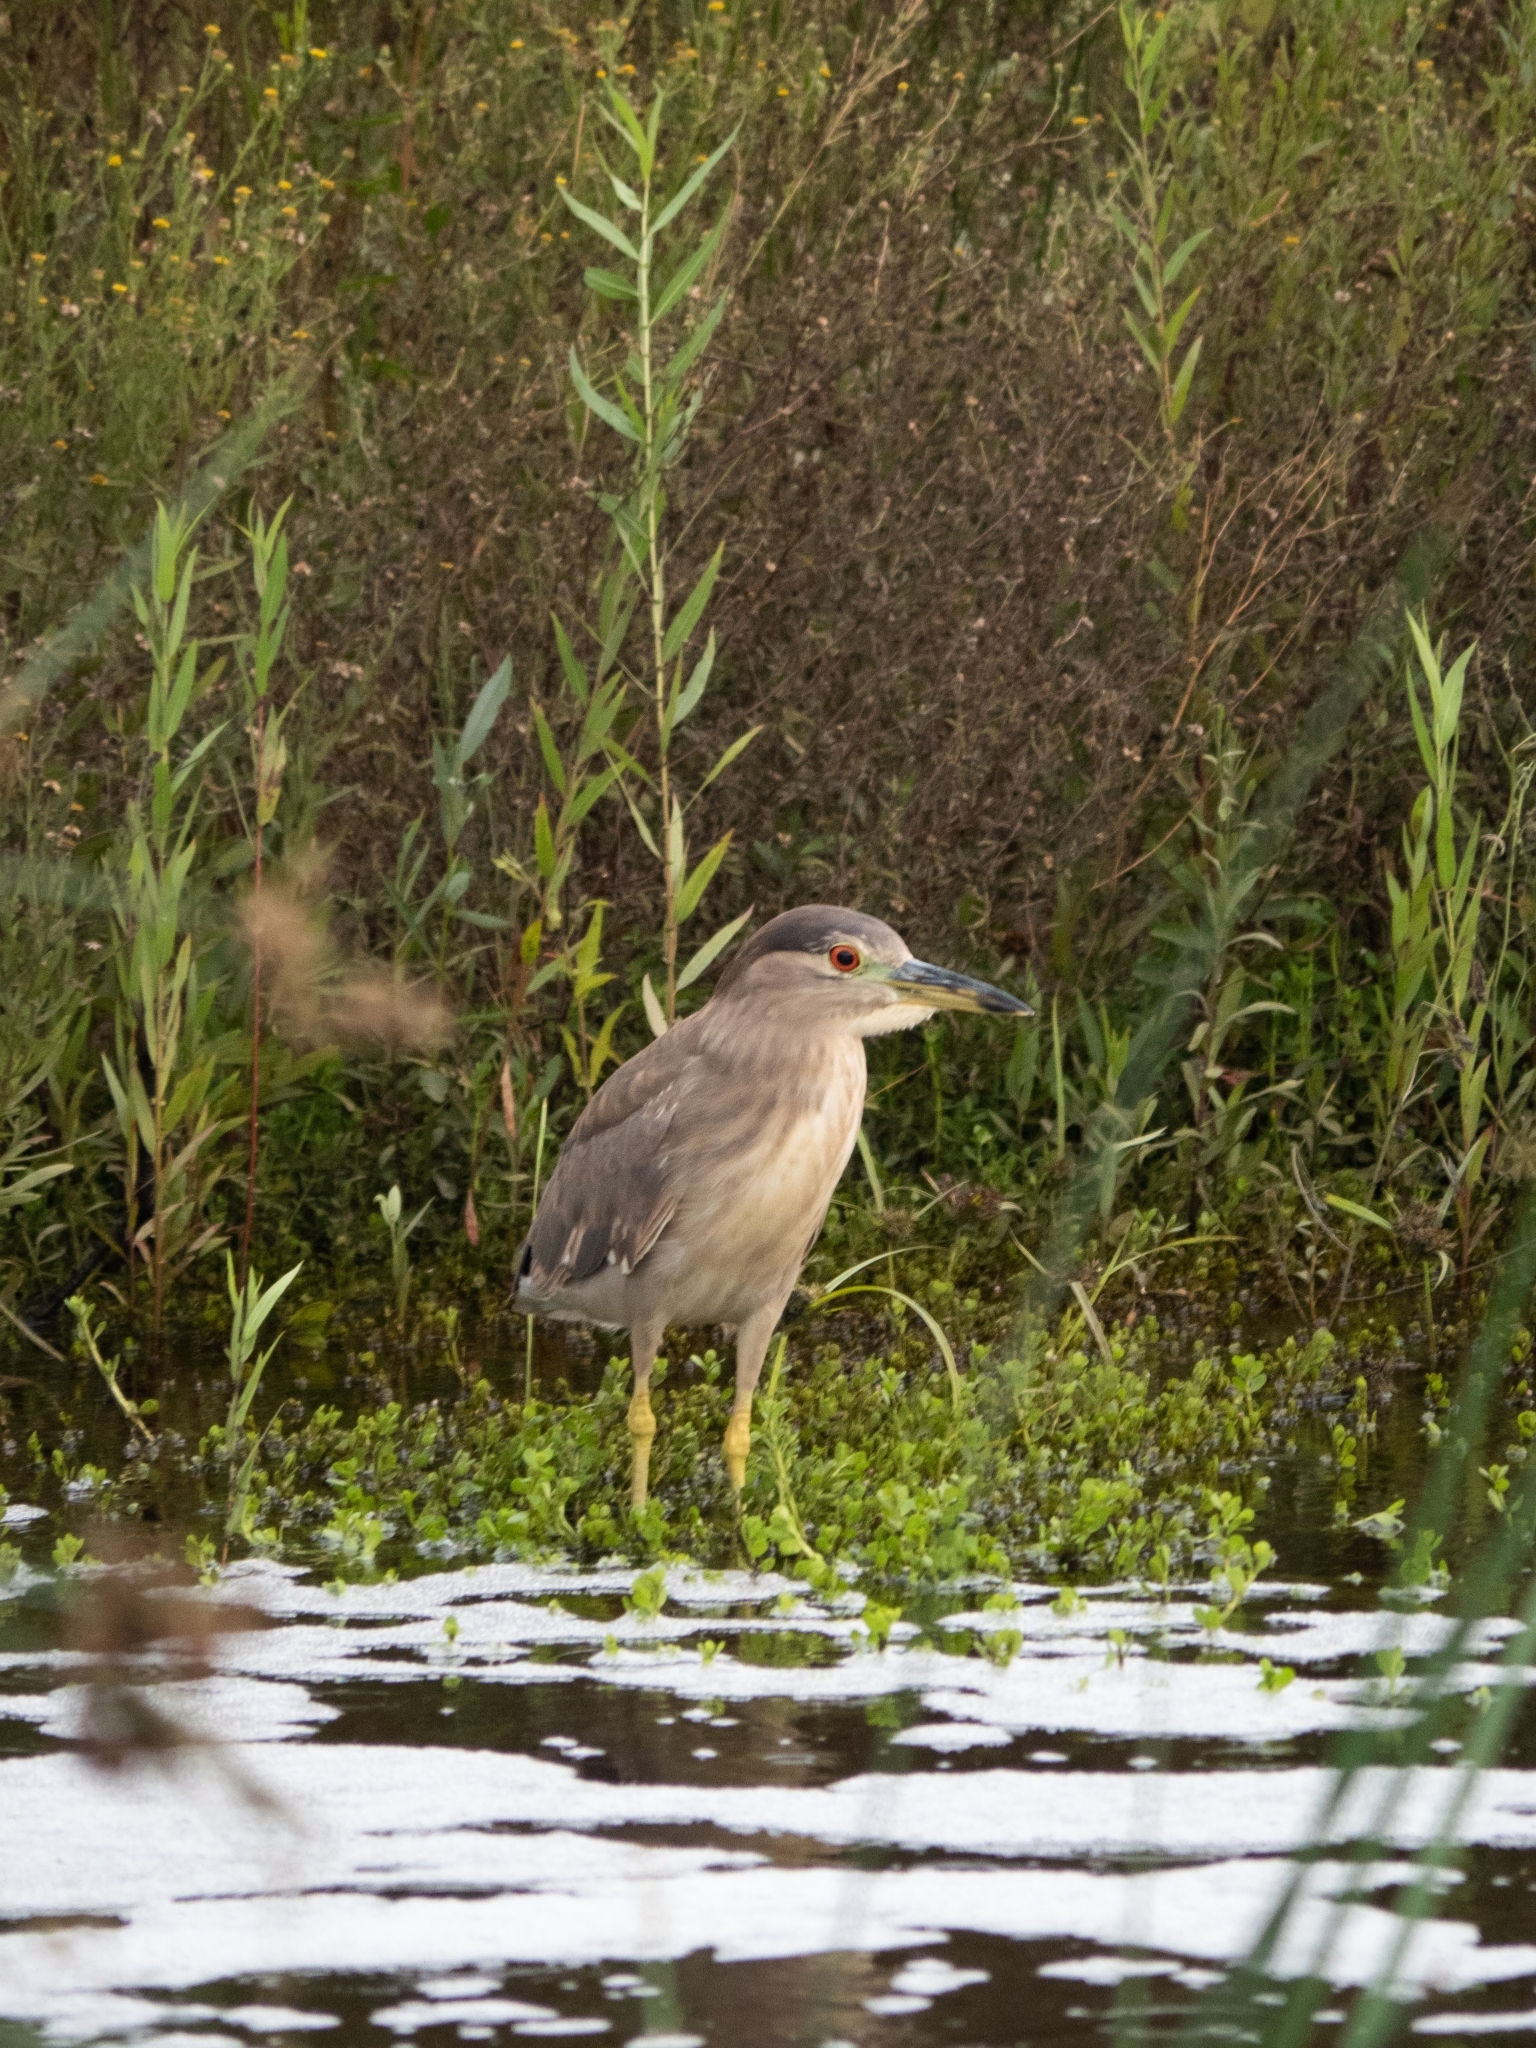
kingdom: Animalia
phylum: Chordata
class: Aves
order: Pelecaniformes
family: Ardeidae
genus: Nycticorax
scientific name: Nycticorax nycticorax
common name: Black-crowned night heron
